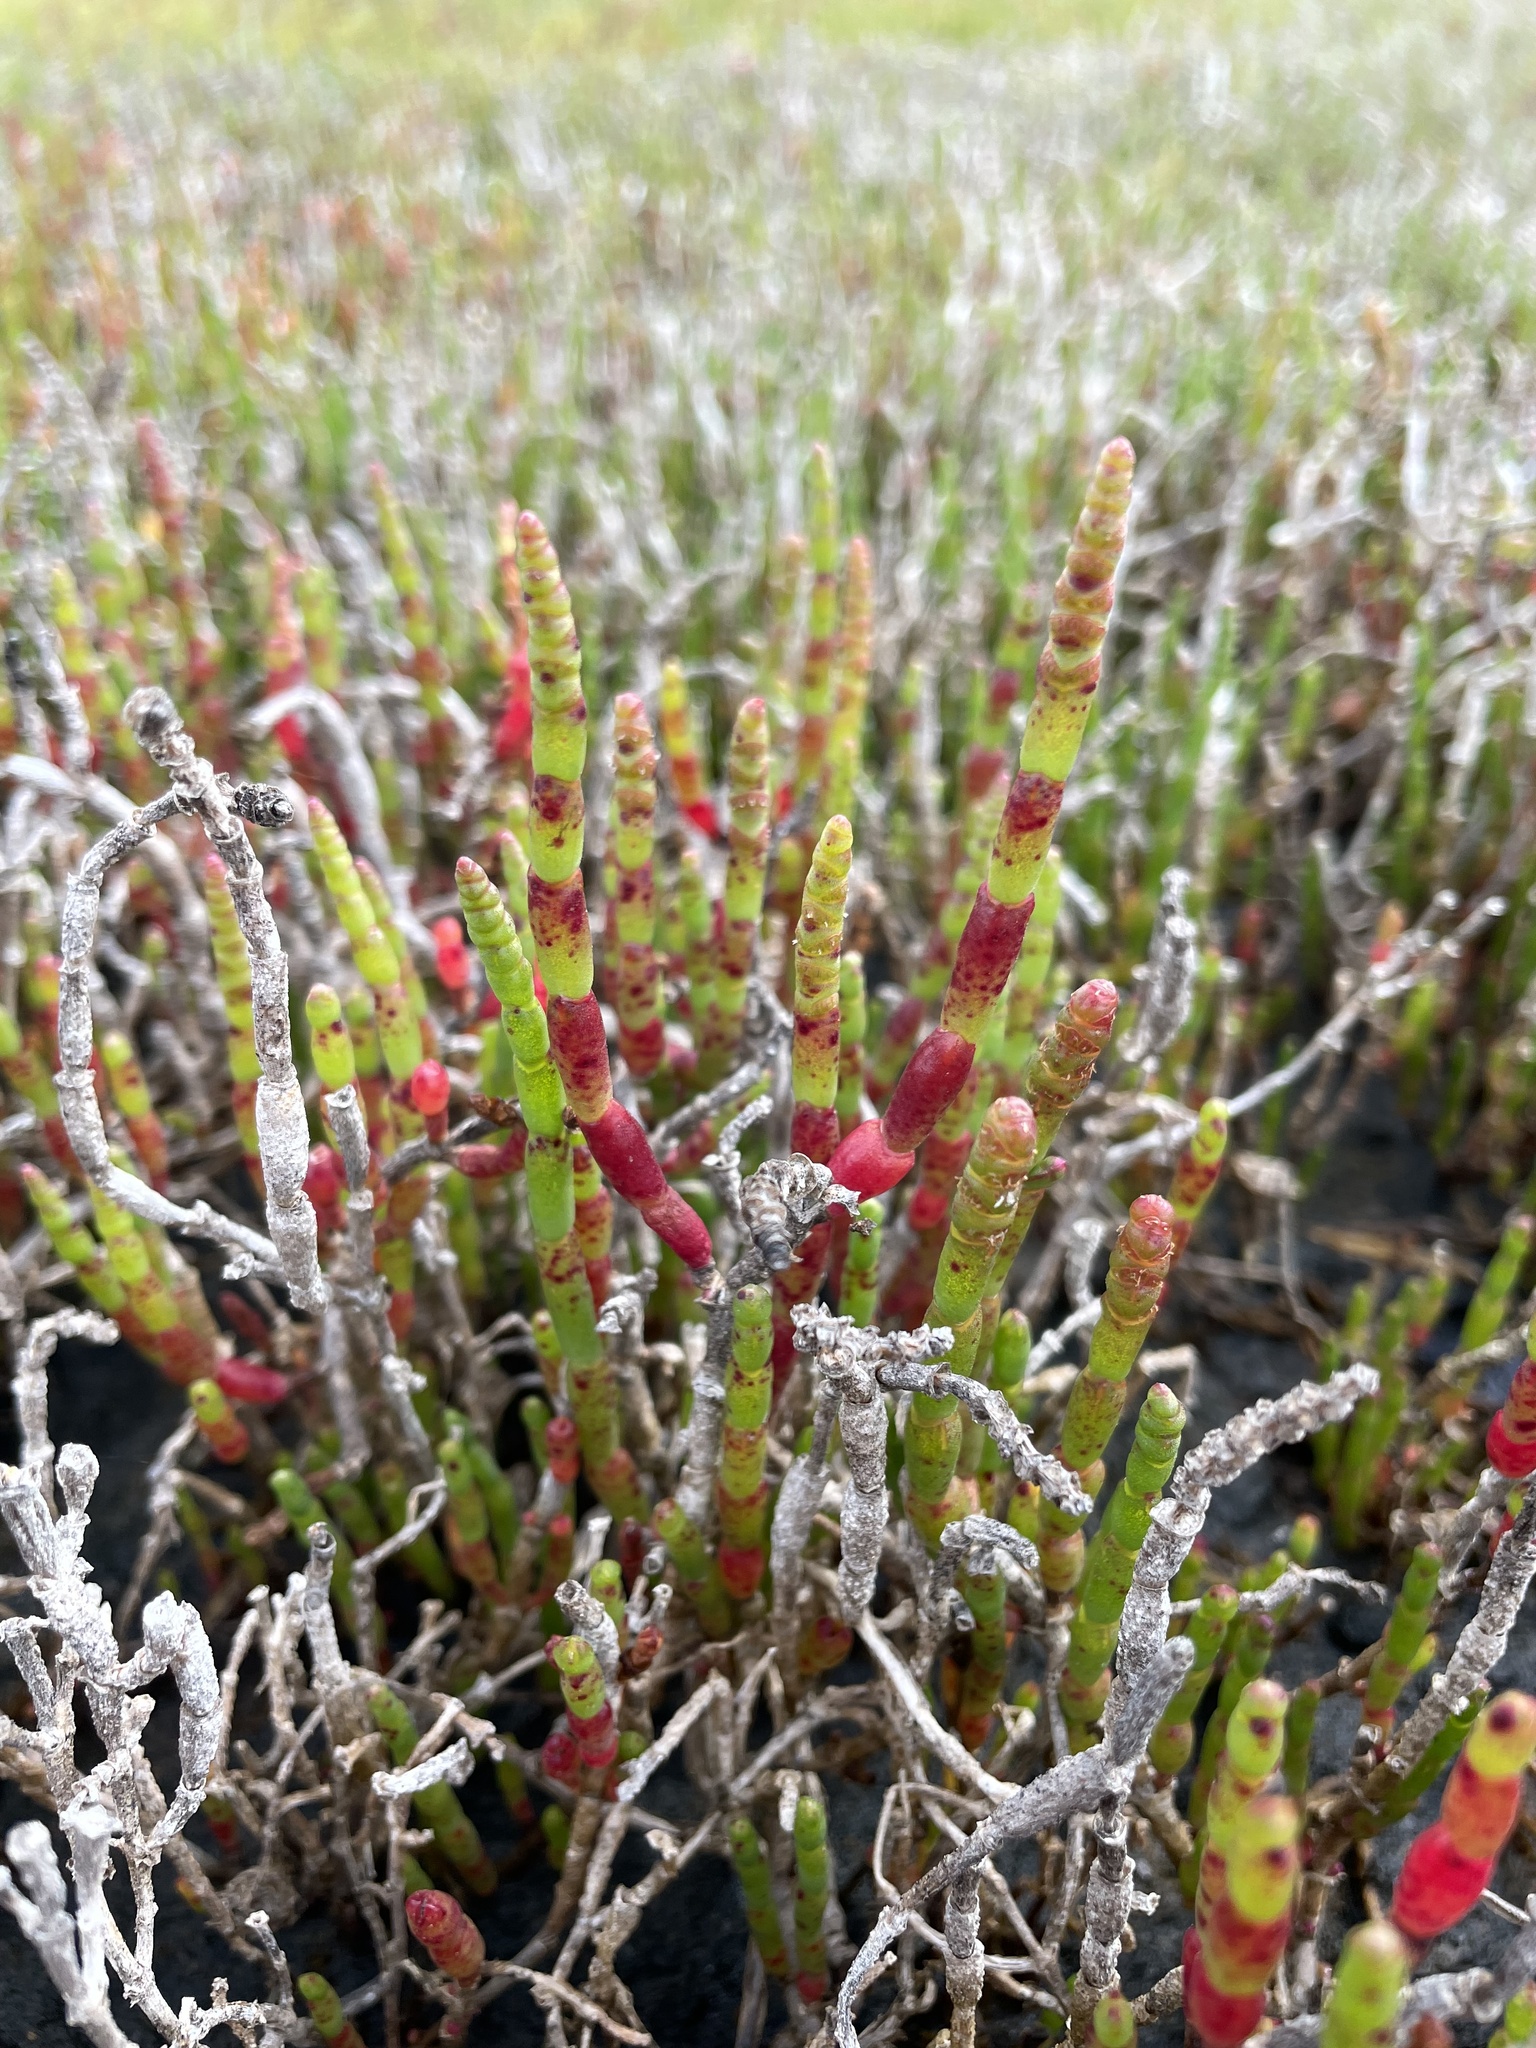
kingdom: Plantae
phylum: Tracheophyta
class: Magnoliopsida
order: Caryophyllales
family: Amaranthaceae
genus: Salicornia
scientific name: Salicornia quinqueflora
